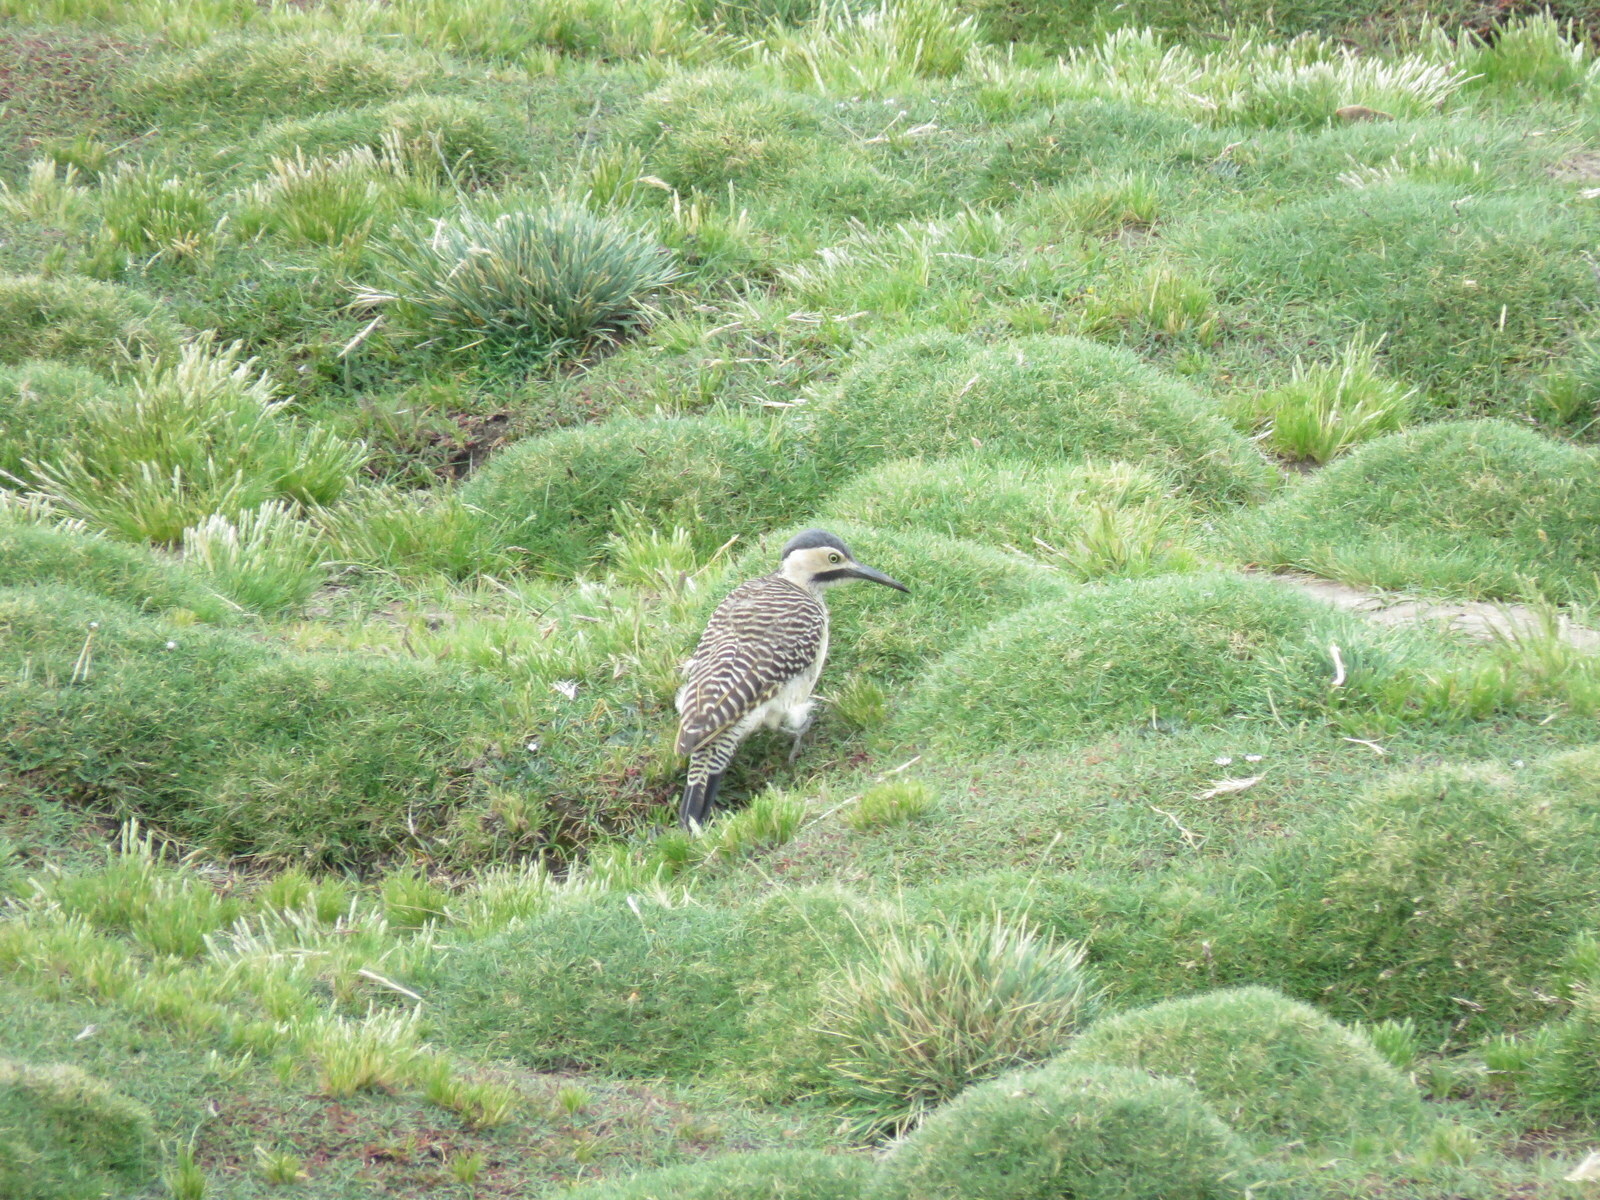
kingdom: Animalia
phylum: Chordata
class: Aves
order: Piciformes
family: Picidae
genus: Colaptes
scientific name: Colaptes rupicola
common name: Andean flicker
